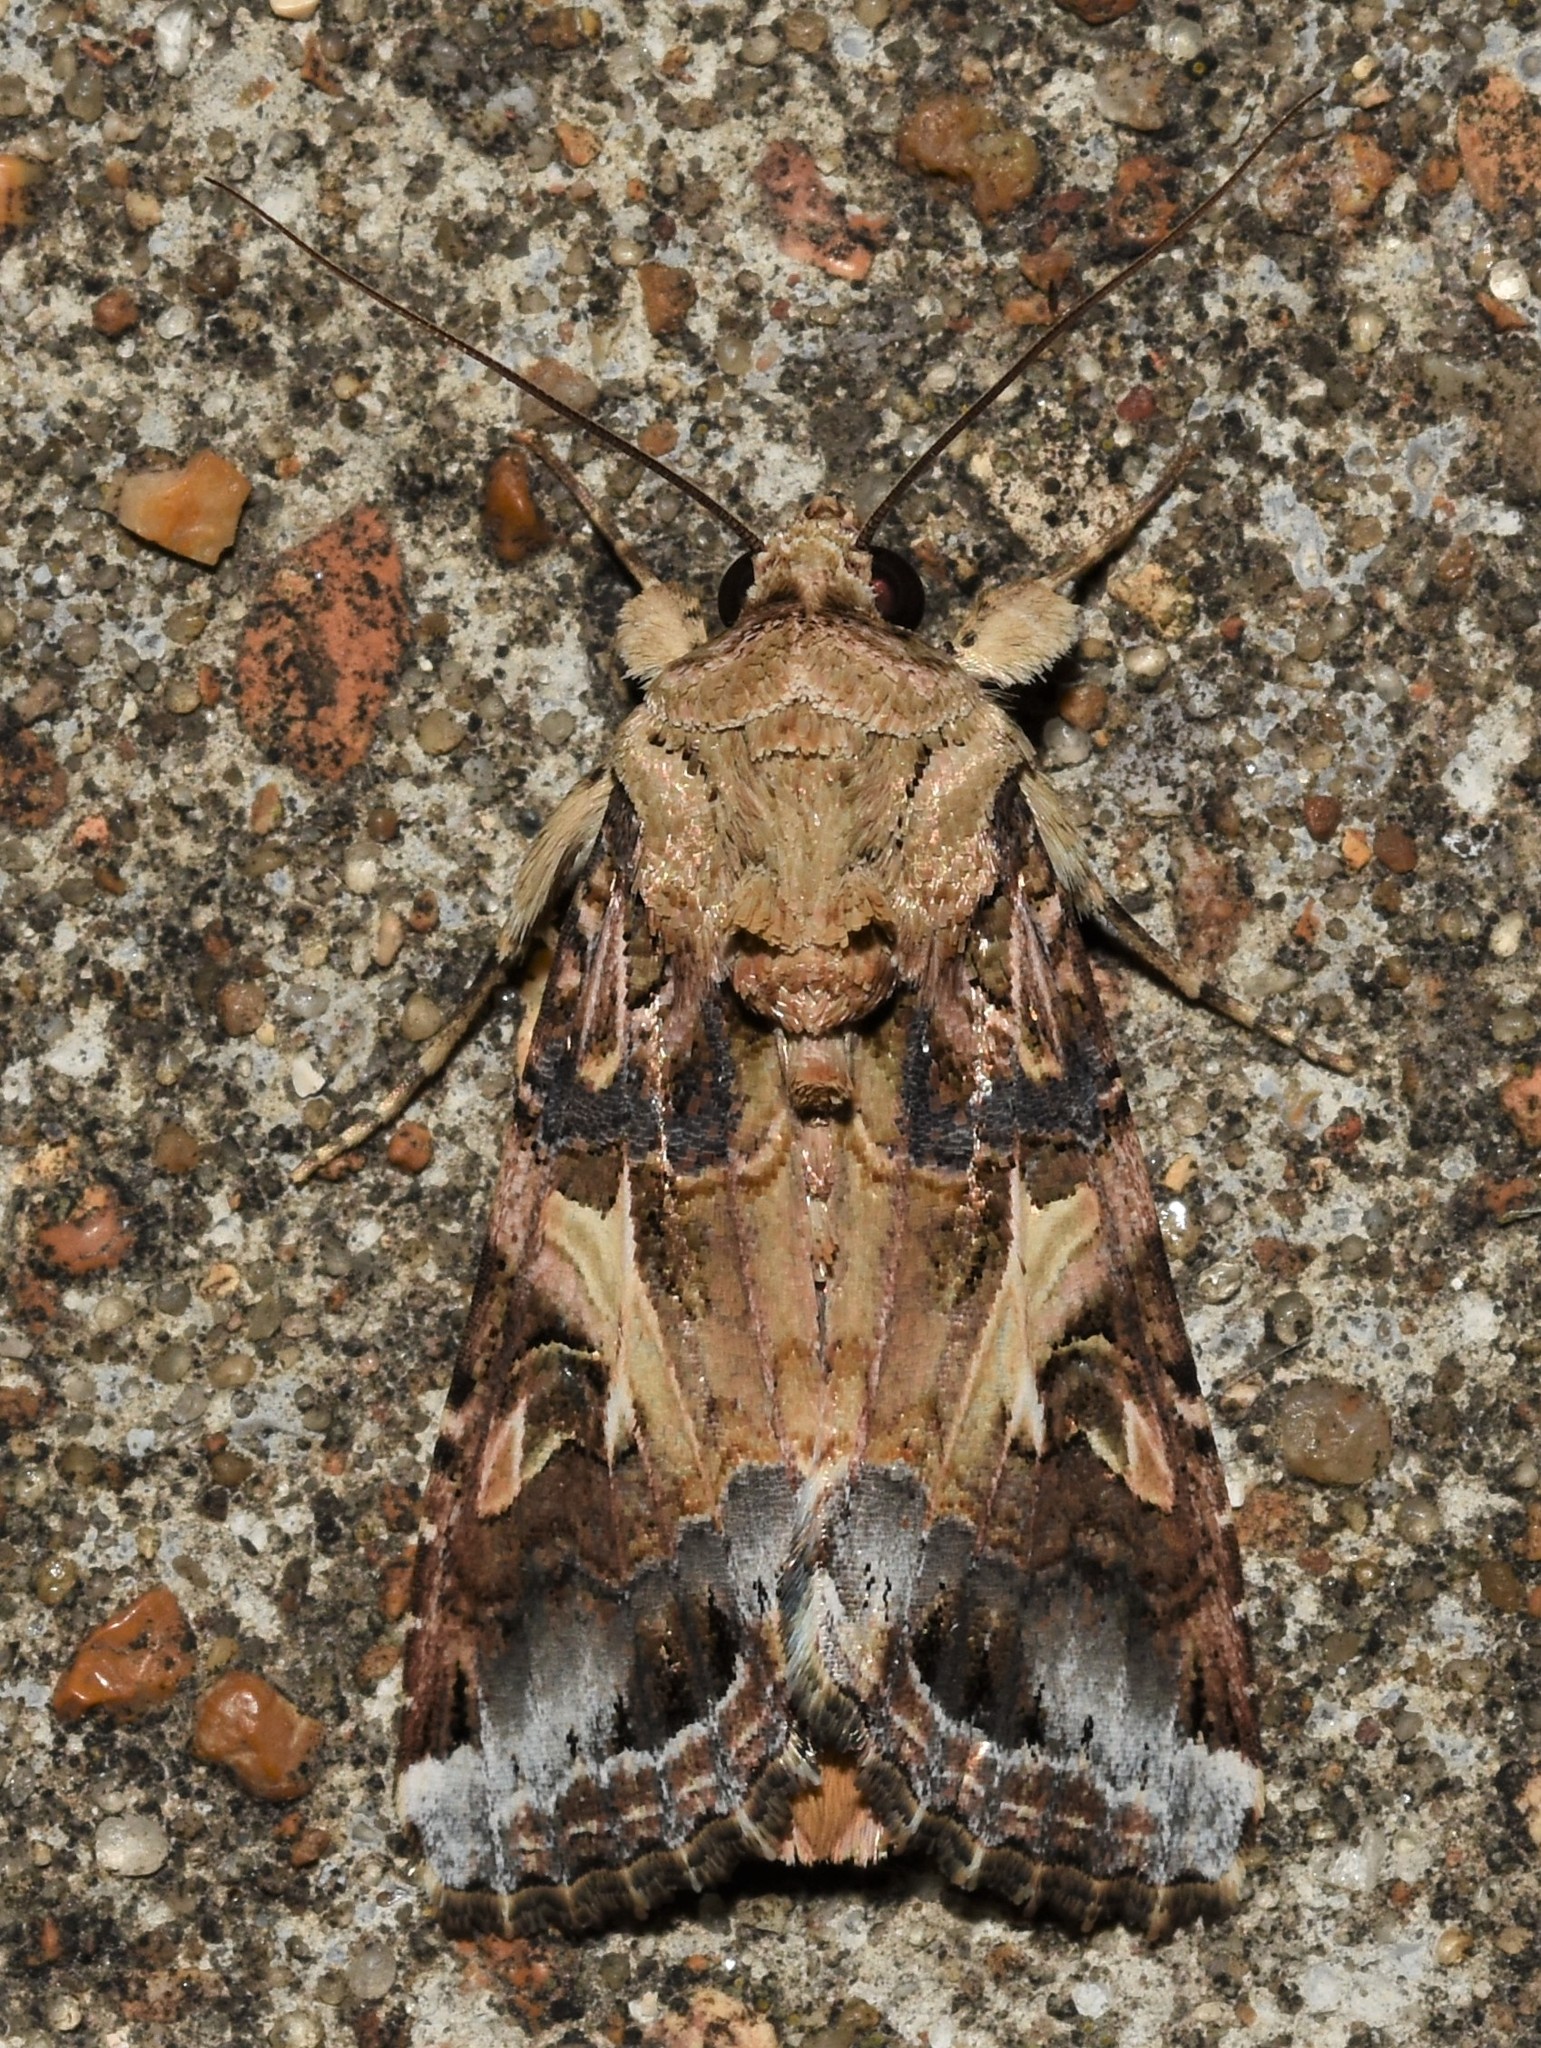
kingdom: Animalia
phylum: Arthropoda
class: Insecta
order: Lepidoptera
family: Noctuidae
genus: Spodoptera
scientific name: Spodoptera ornithogalli
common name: Yellow-striped armyworm
